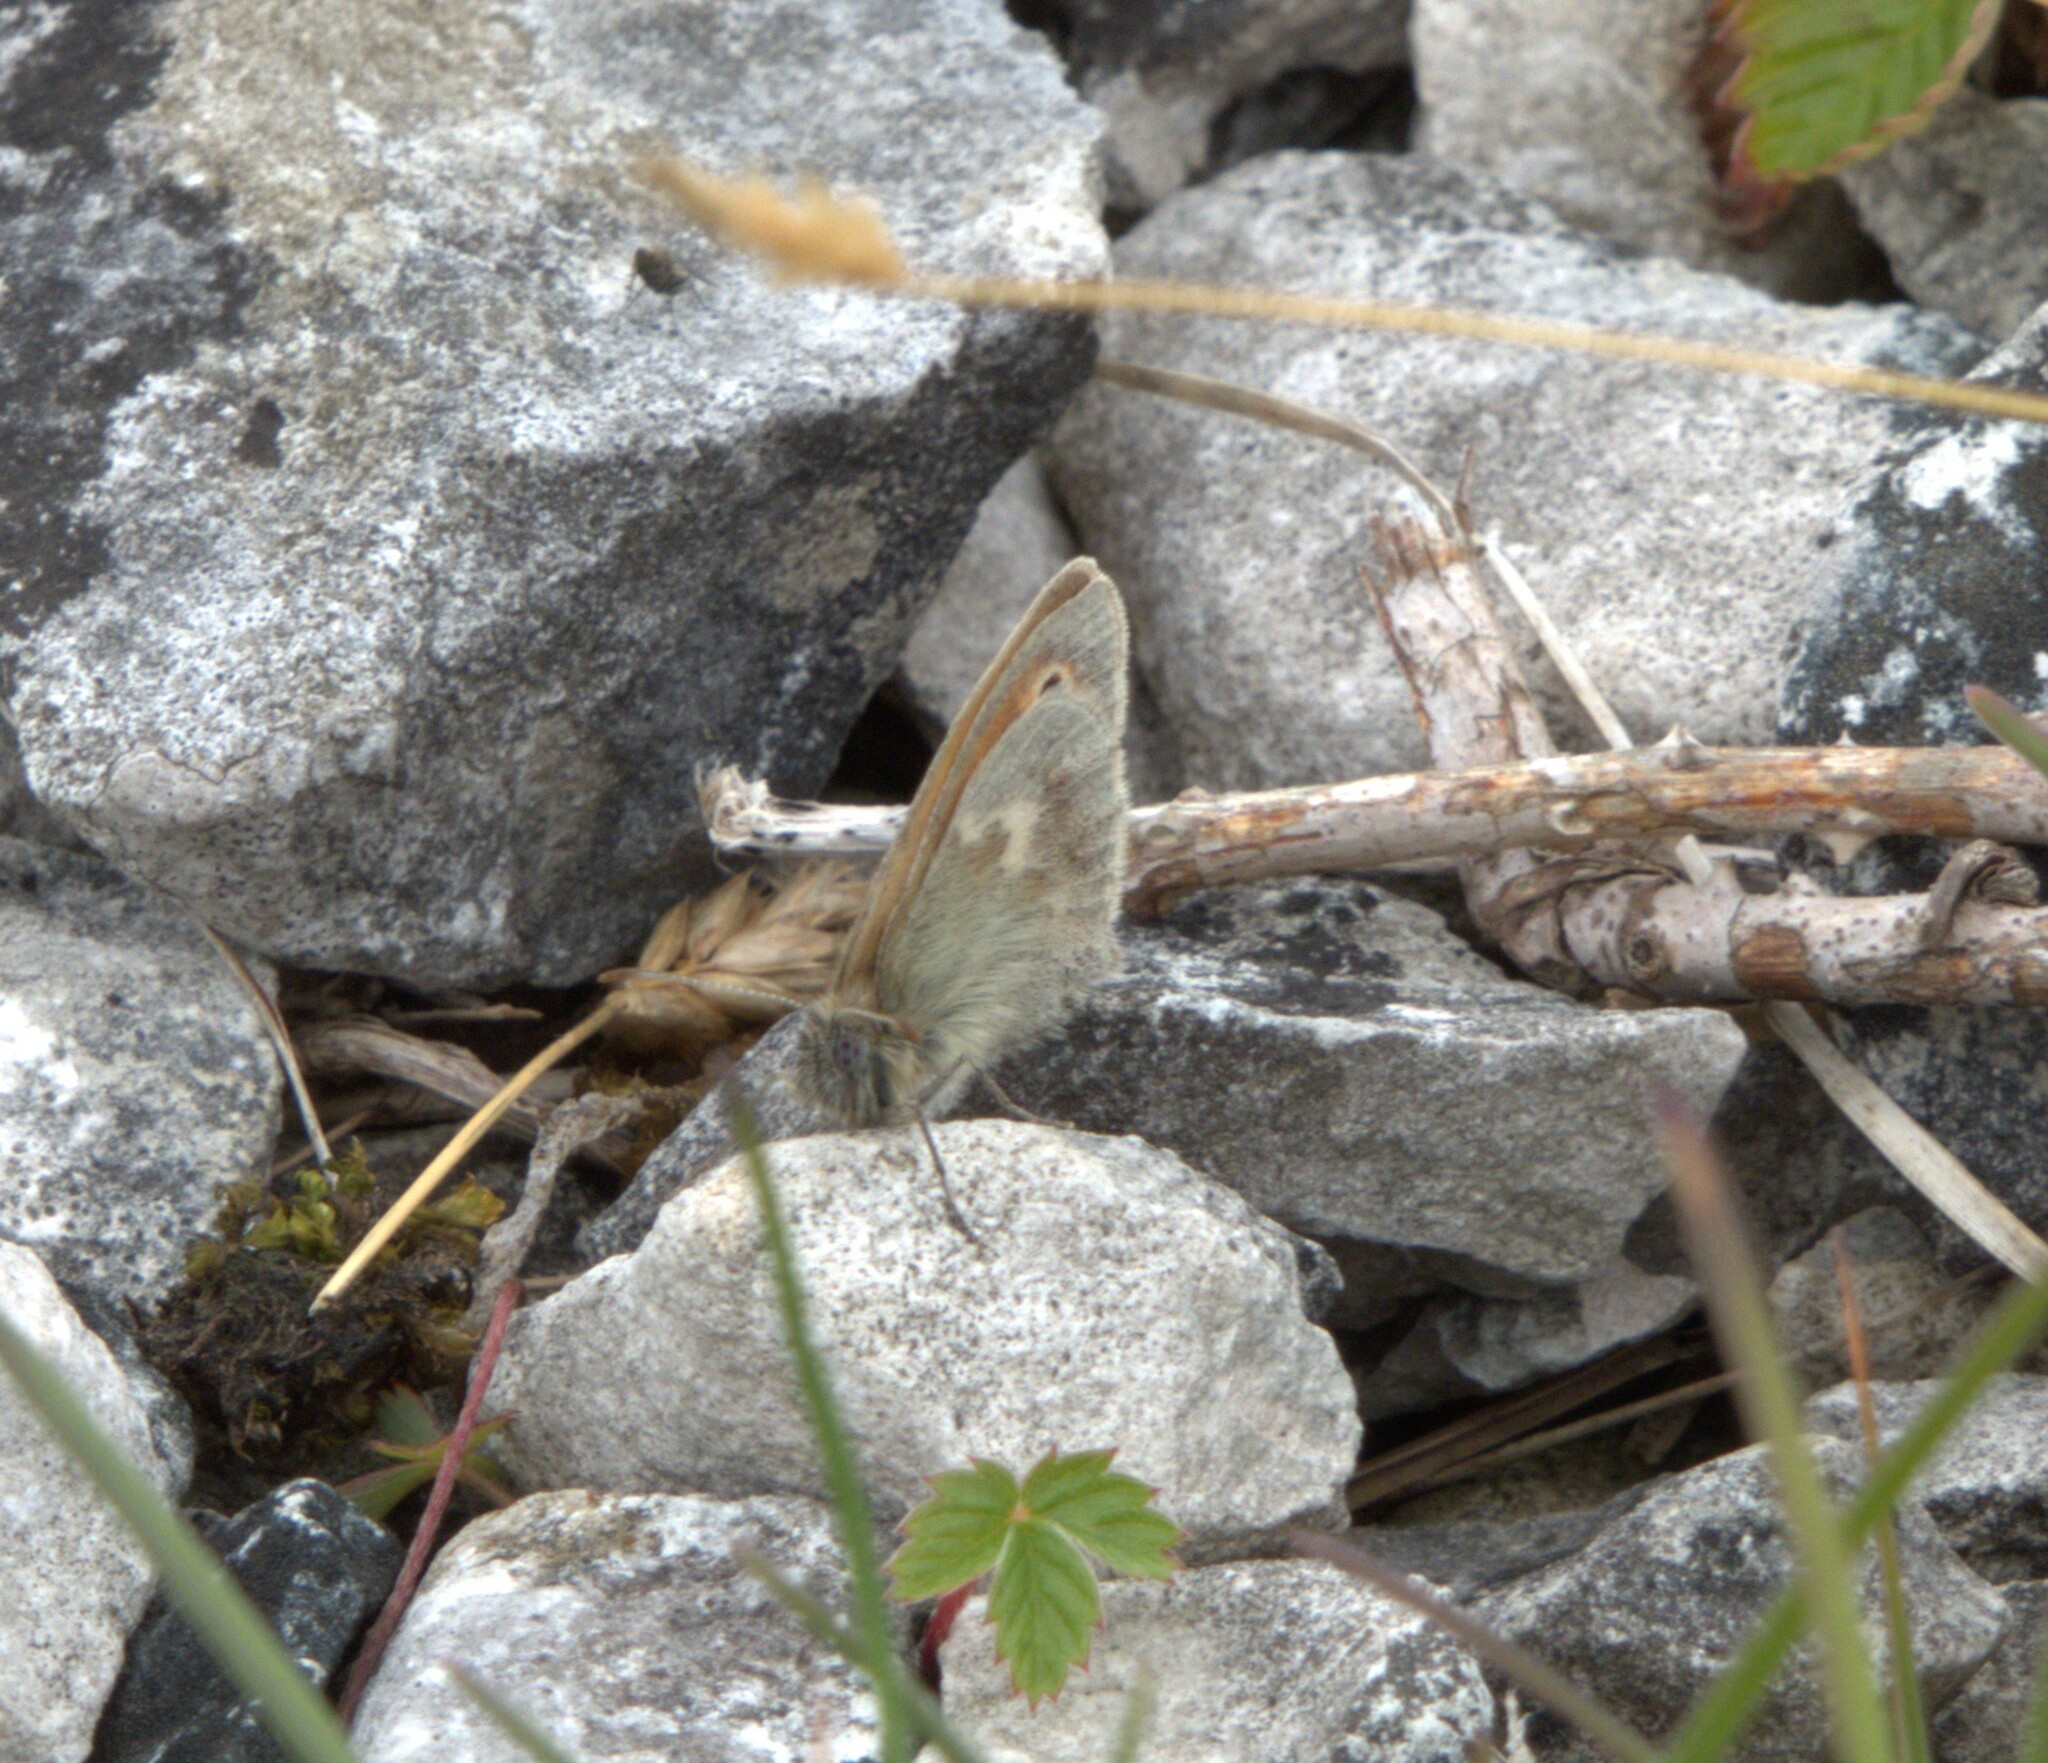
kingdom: Animalia
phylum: Arthropoda
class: Insecta
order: Lepidoptera
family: Nymphalidae
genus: Coenonympha
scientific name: Coenonympha pamphilus
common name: Small heath
